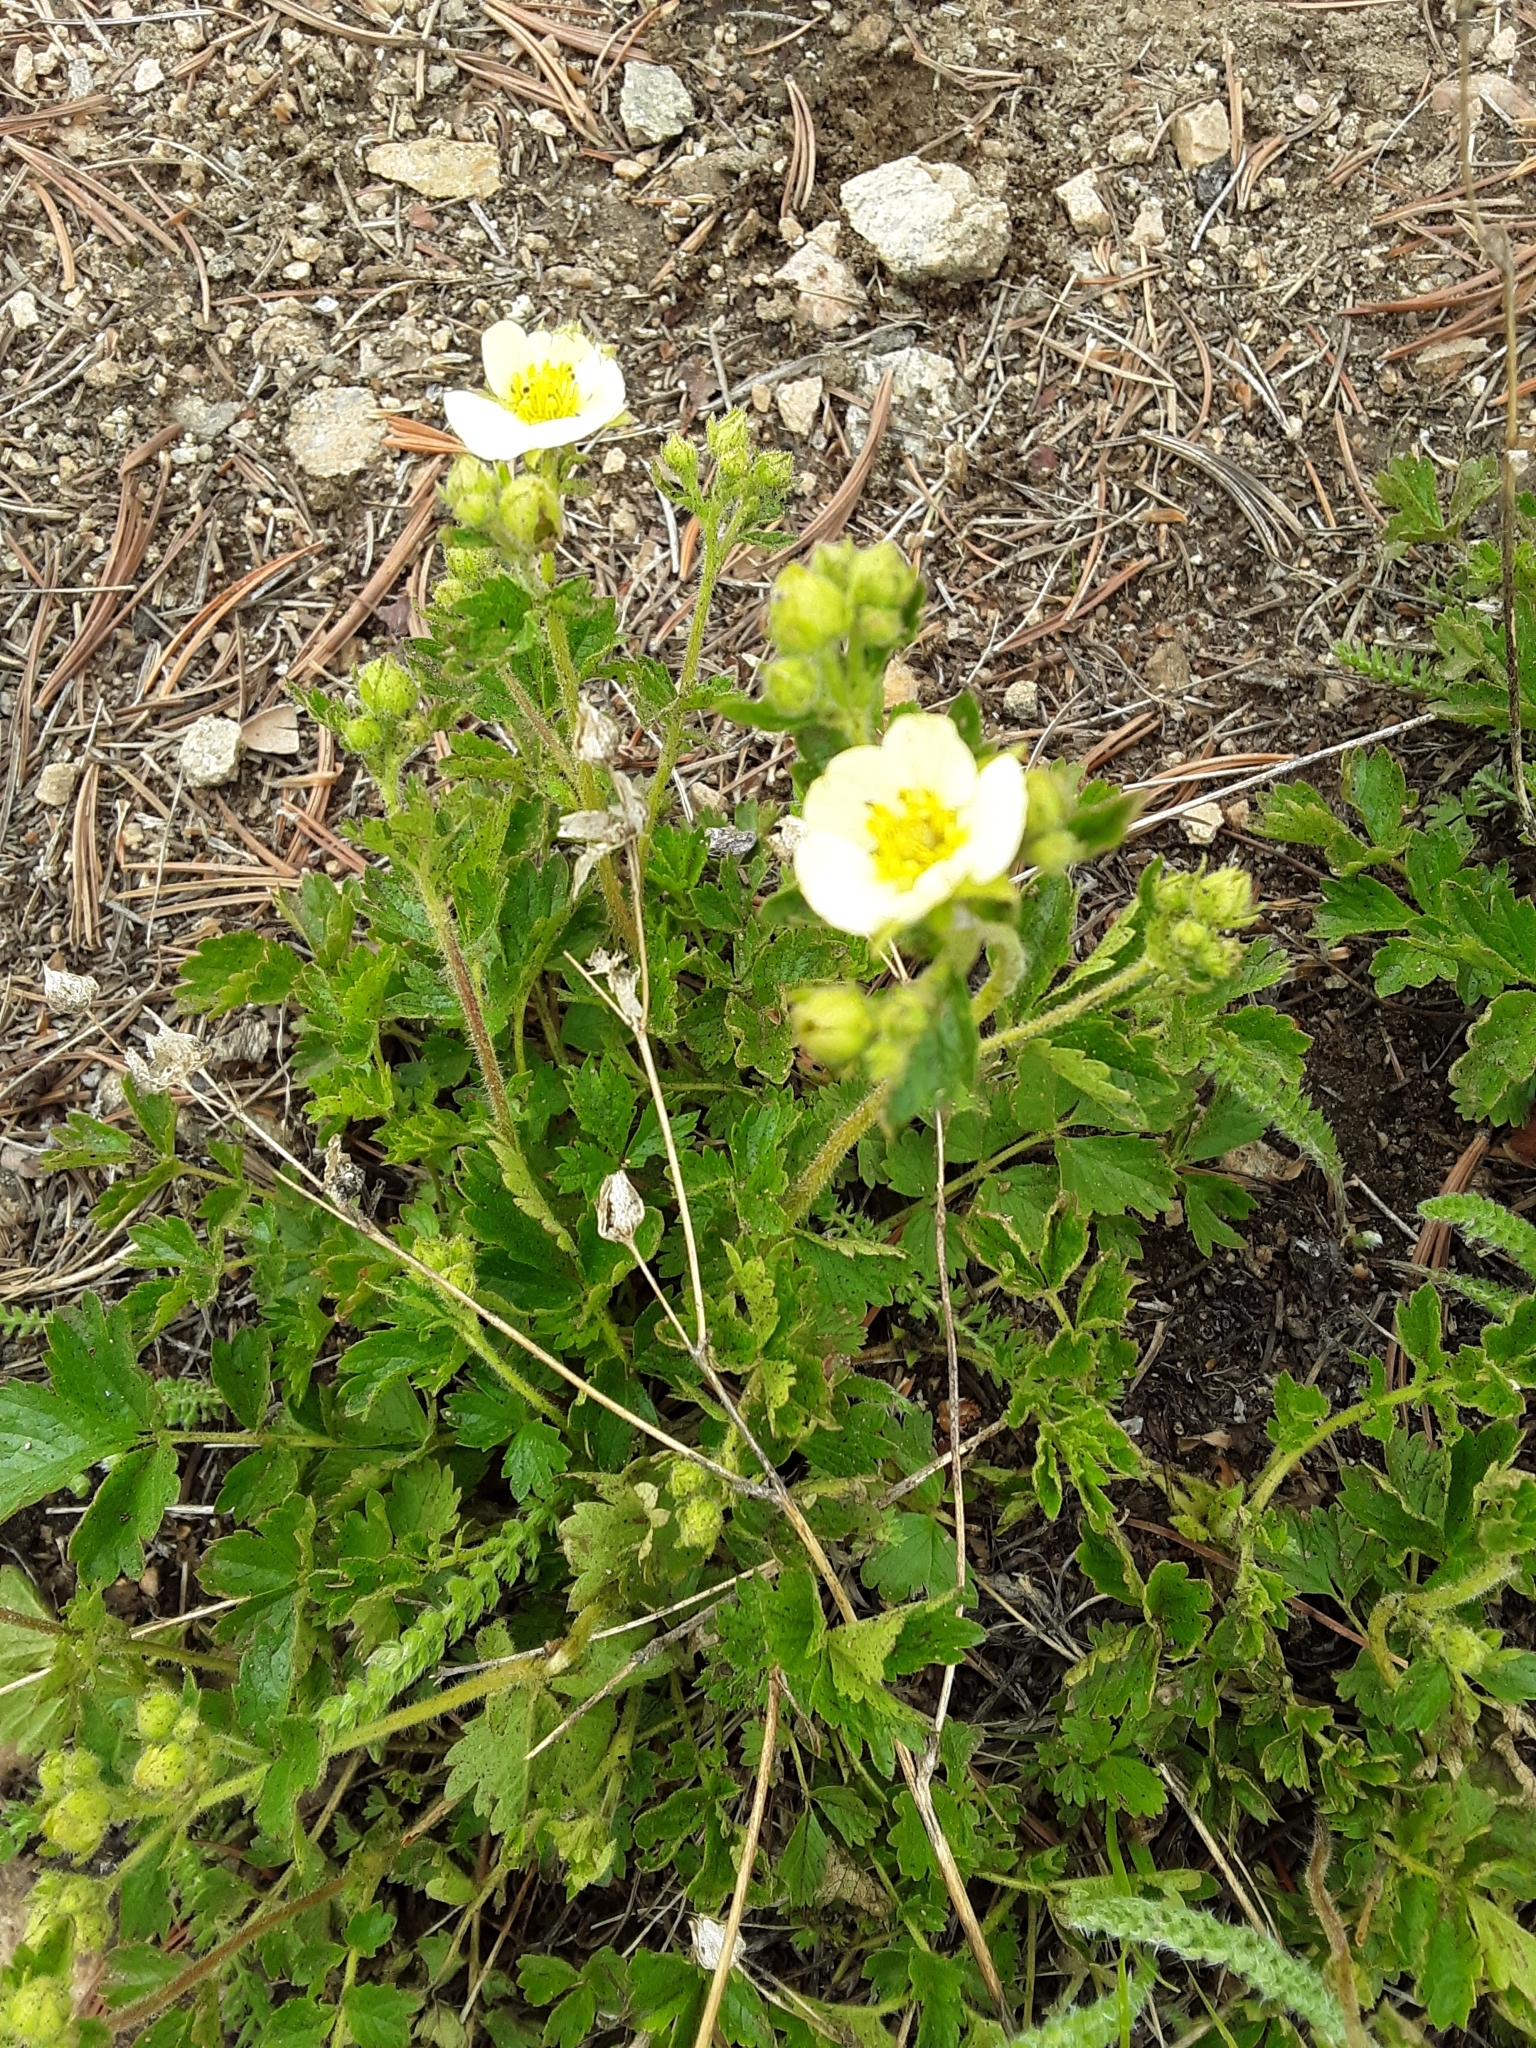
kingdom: Plantae
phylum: Tracheophyta
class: Magnoliopsida
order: Rosales
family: Rosaceae
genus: Drymocallis
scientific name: Drymocallis pseudorupestris
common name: Sticky cinquefoil
